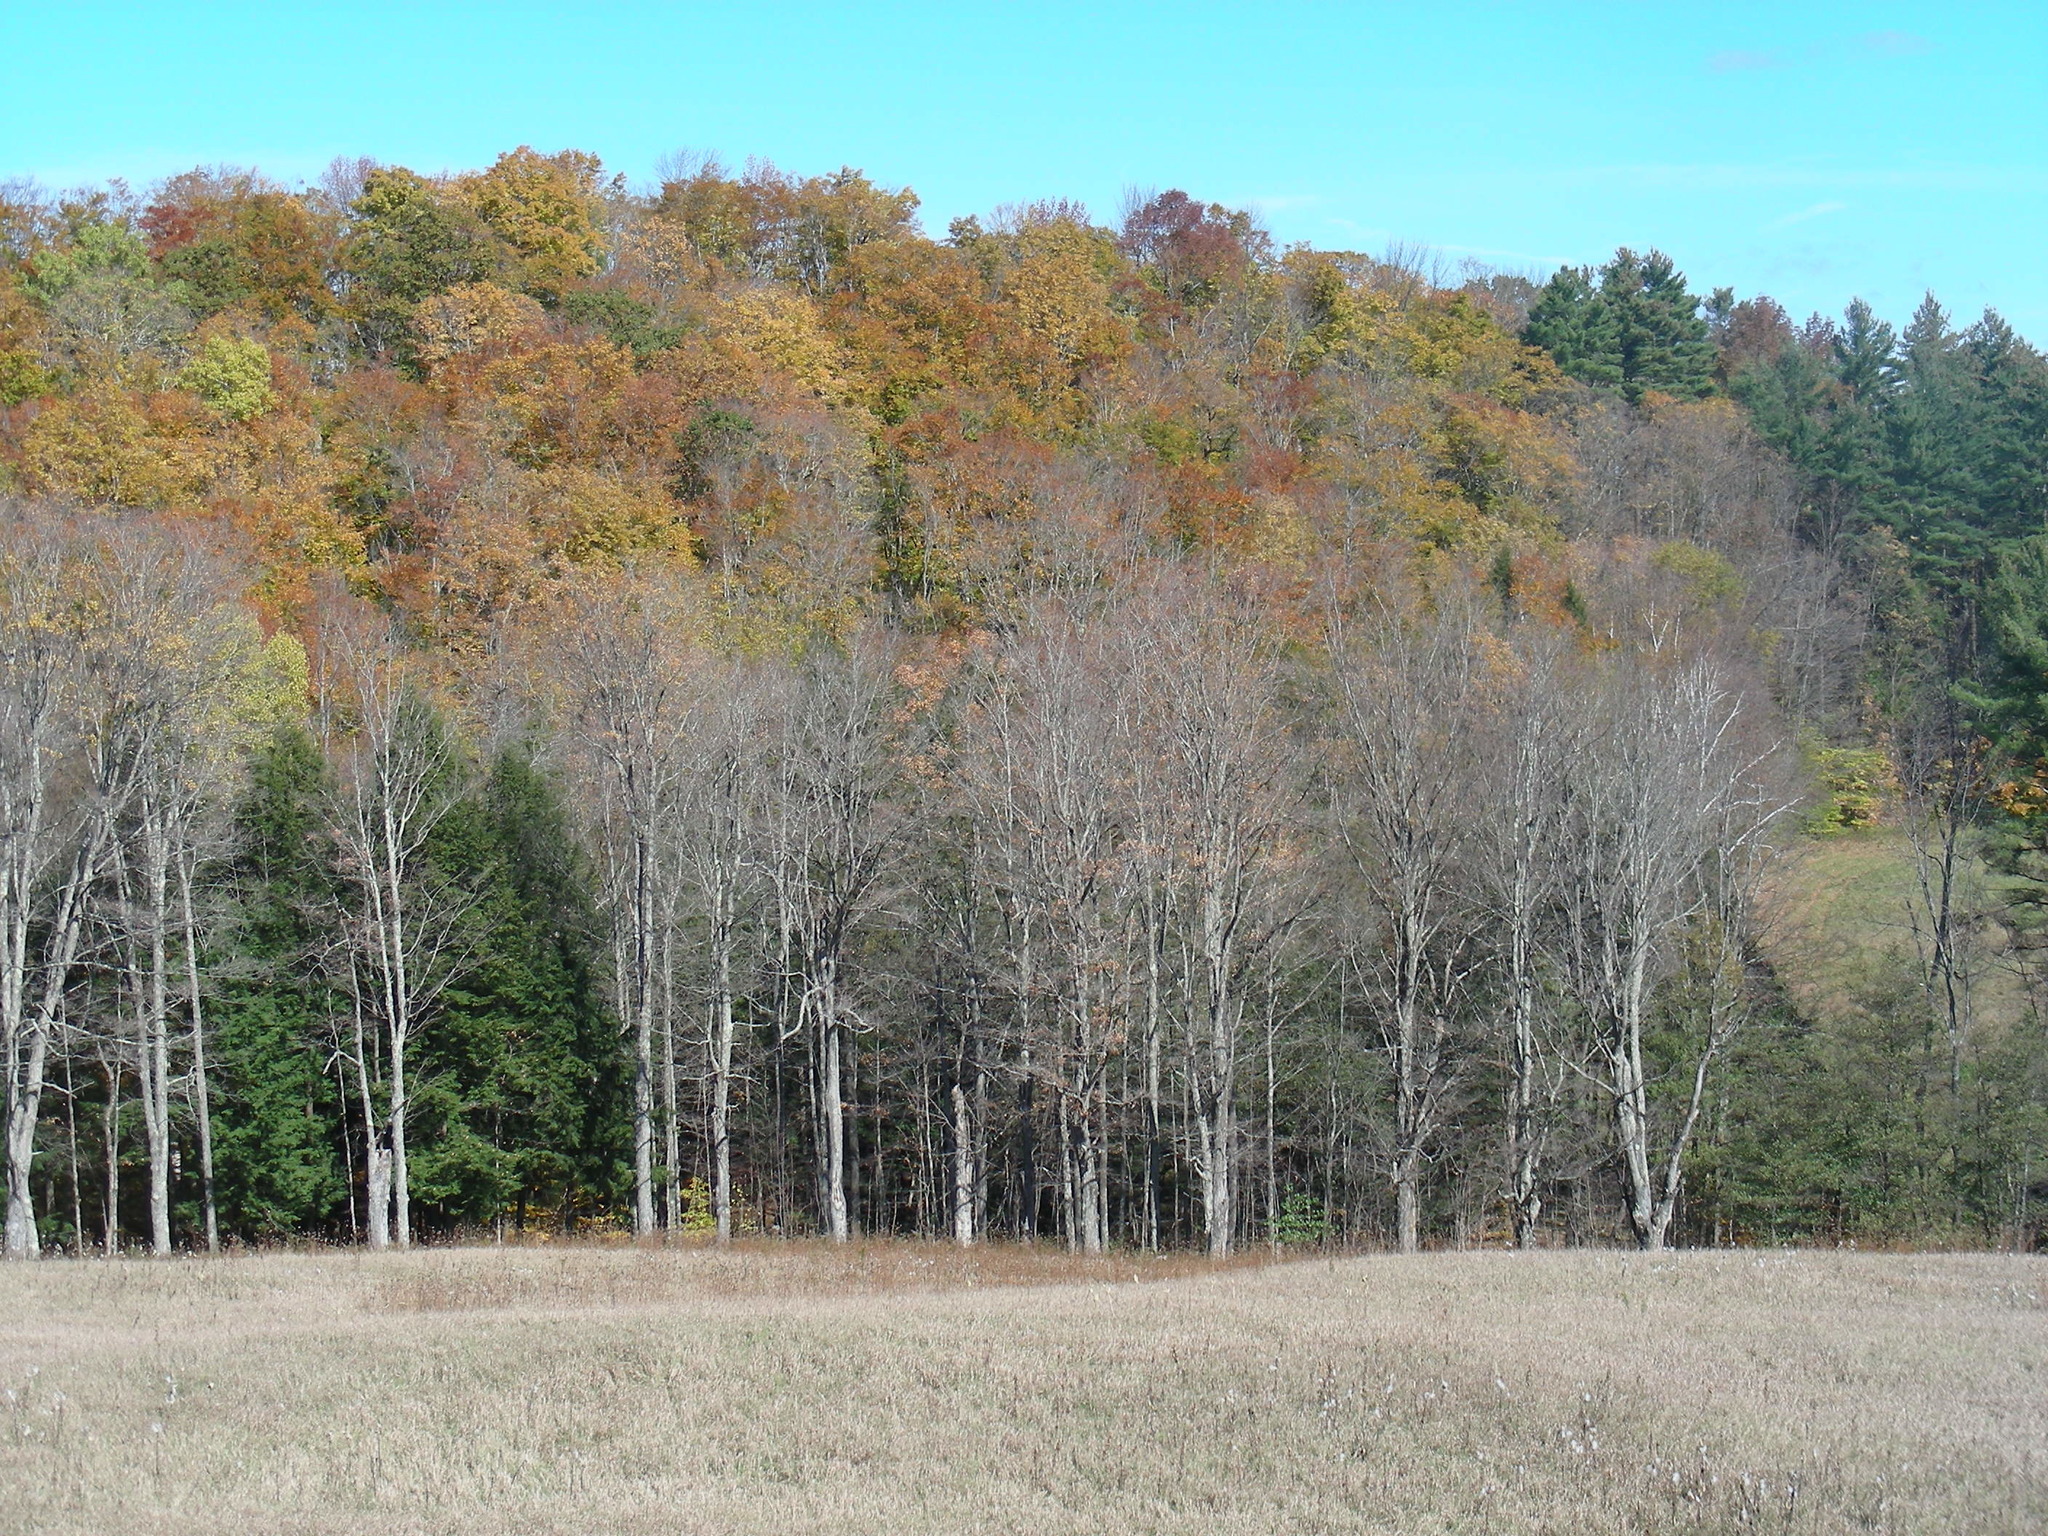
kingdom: Plantae
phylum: Tracheophyta
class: Magnoliopsida
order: Sapindales
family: Sapindaceae
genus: Acer
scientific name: Acer saccharum
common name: Sugar maple
